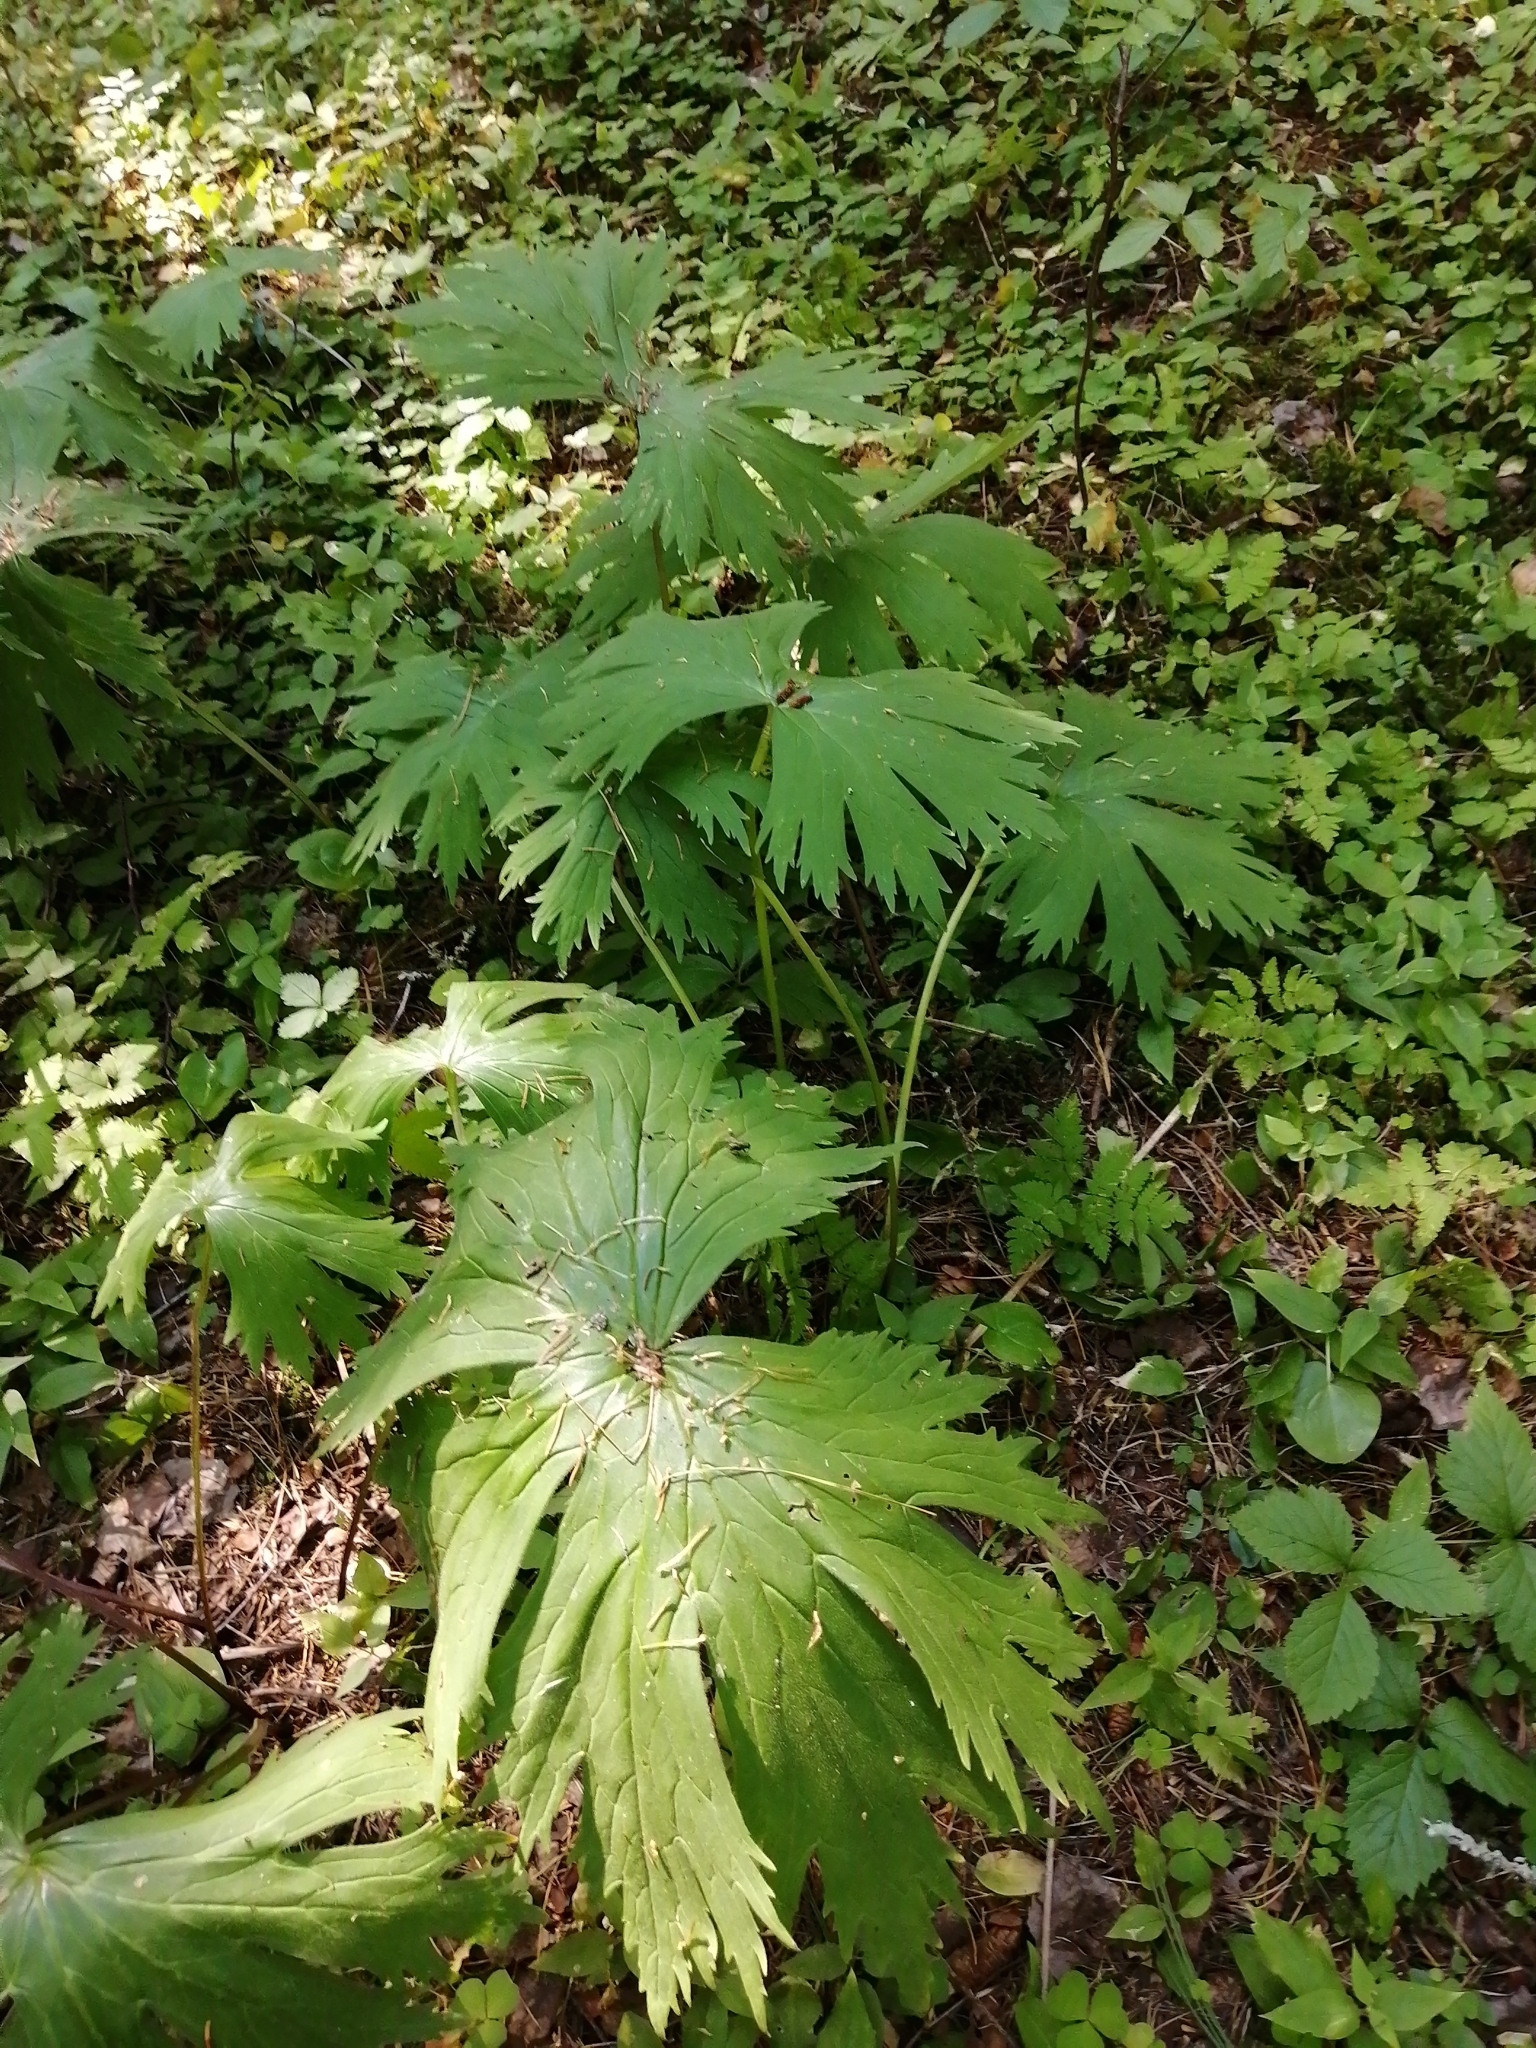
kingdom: Plantae
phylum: Tracheophyta
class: Magnoliopsida
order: Ranunculales
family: Ranunculaceae
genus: Aconitum
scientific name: Aconitum septentrionale
